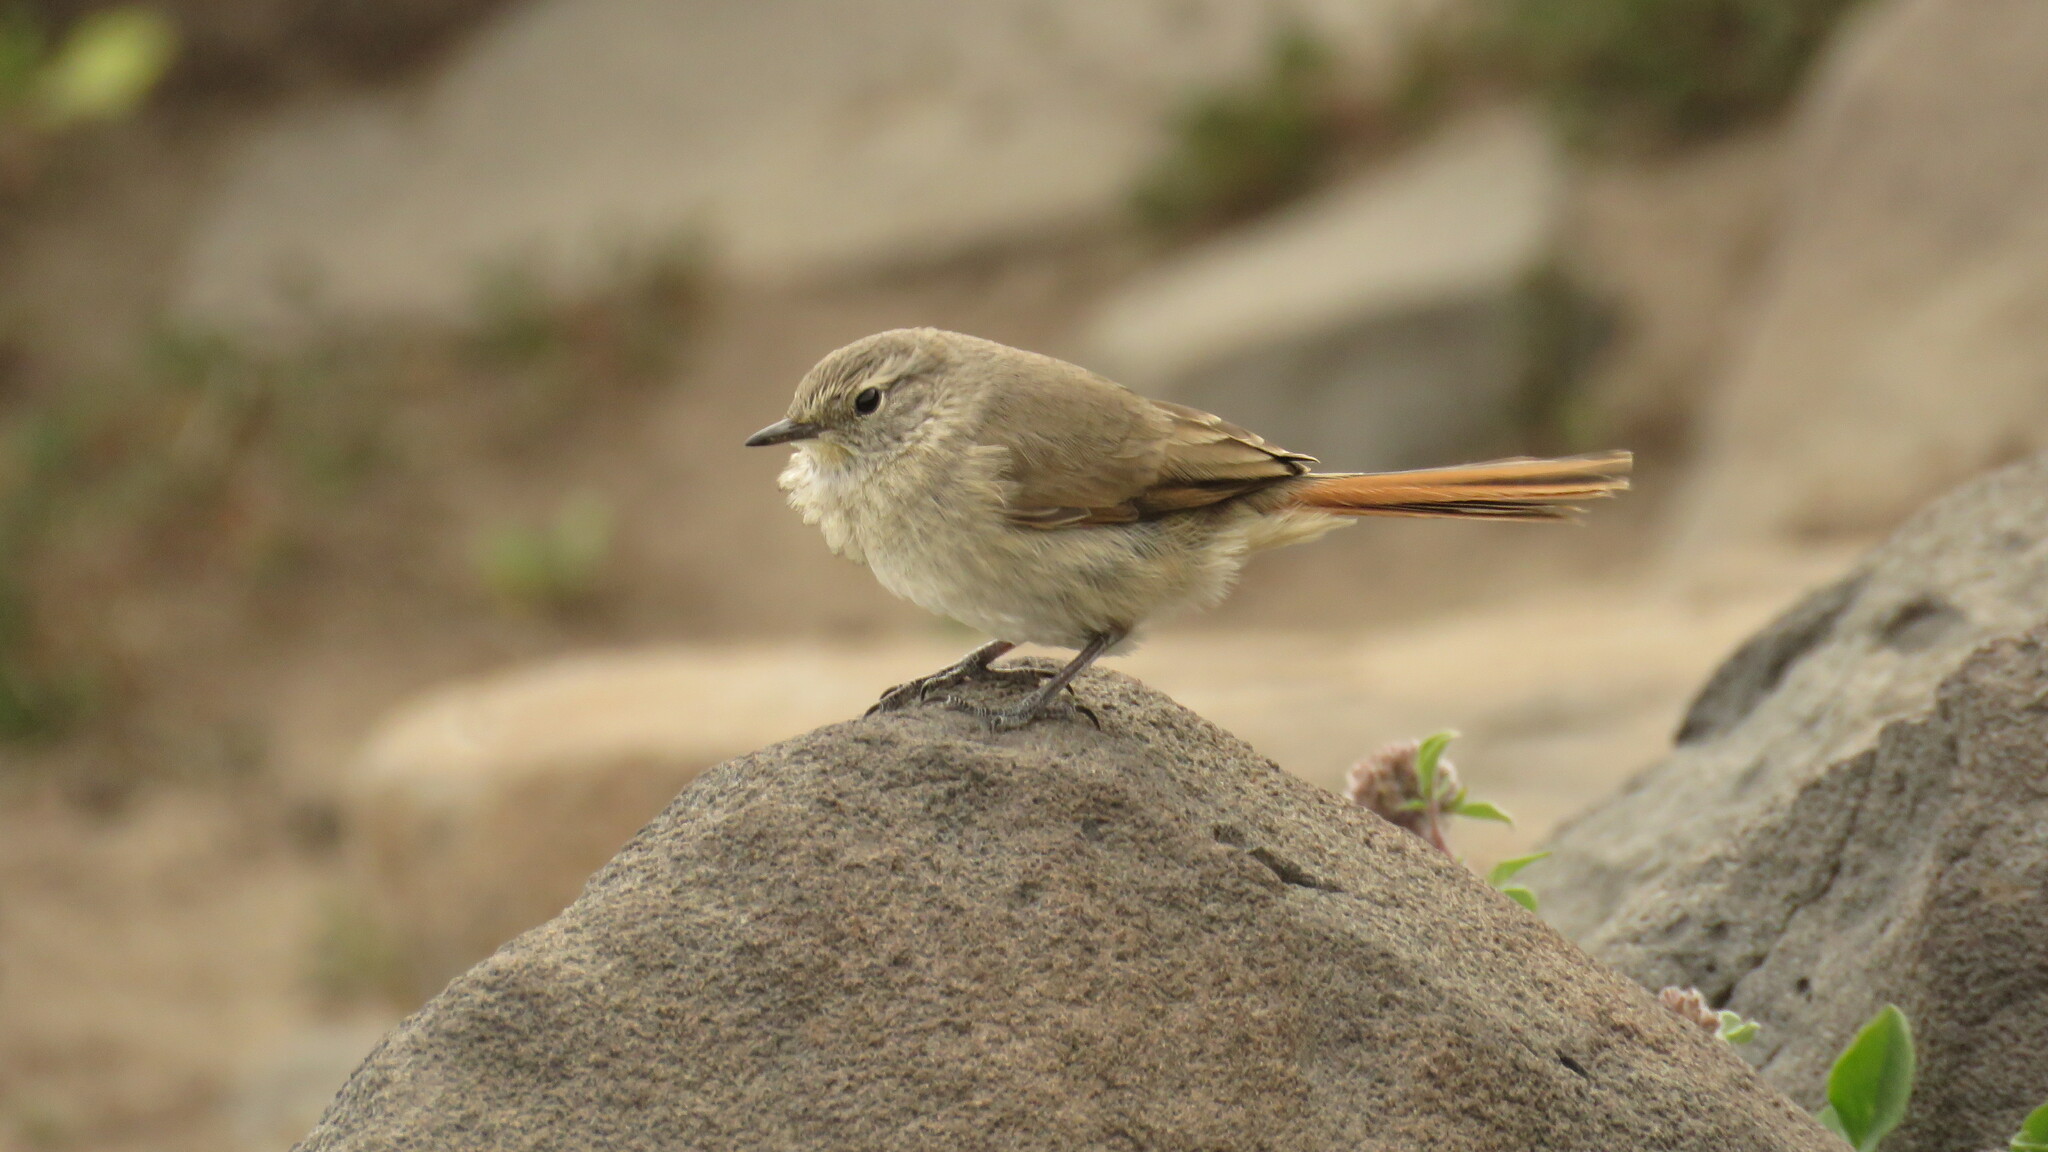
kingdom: Animalia
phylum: Chordata
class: Aves
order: Passeriformes
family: Furnariidae
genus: Asthenes
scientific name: Asthenes modesta
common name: Cordilleran canastero
